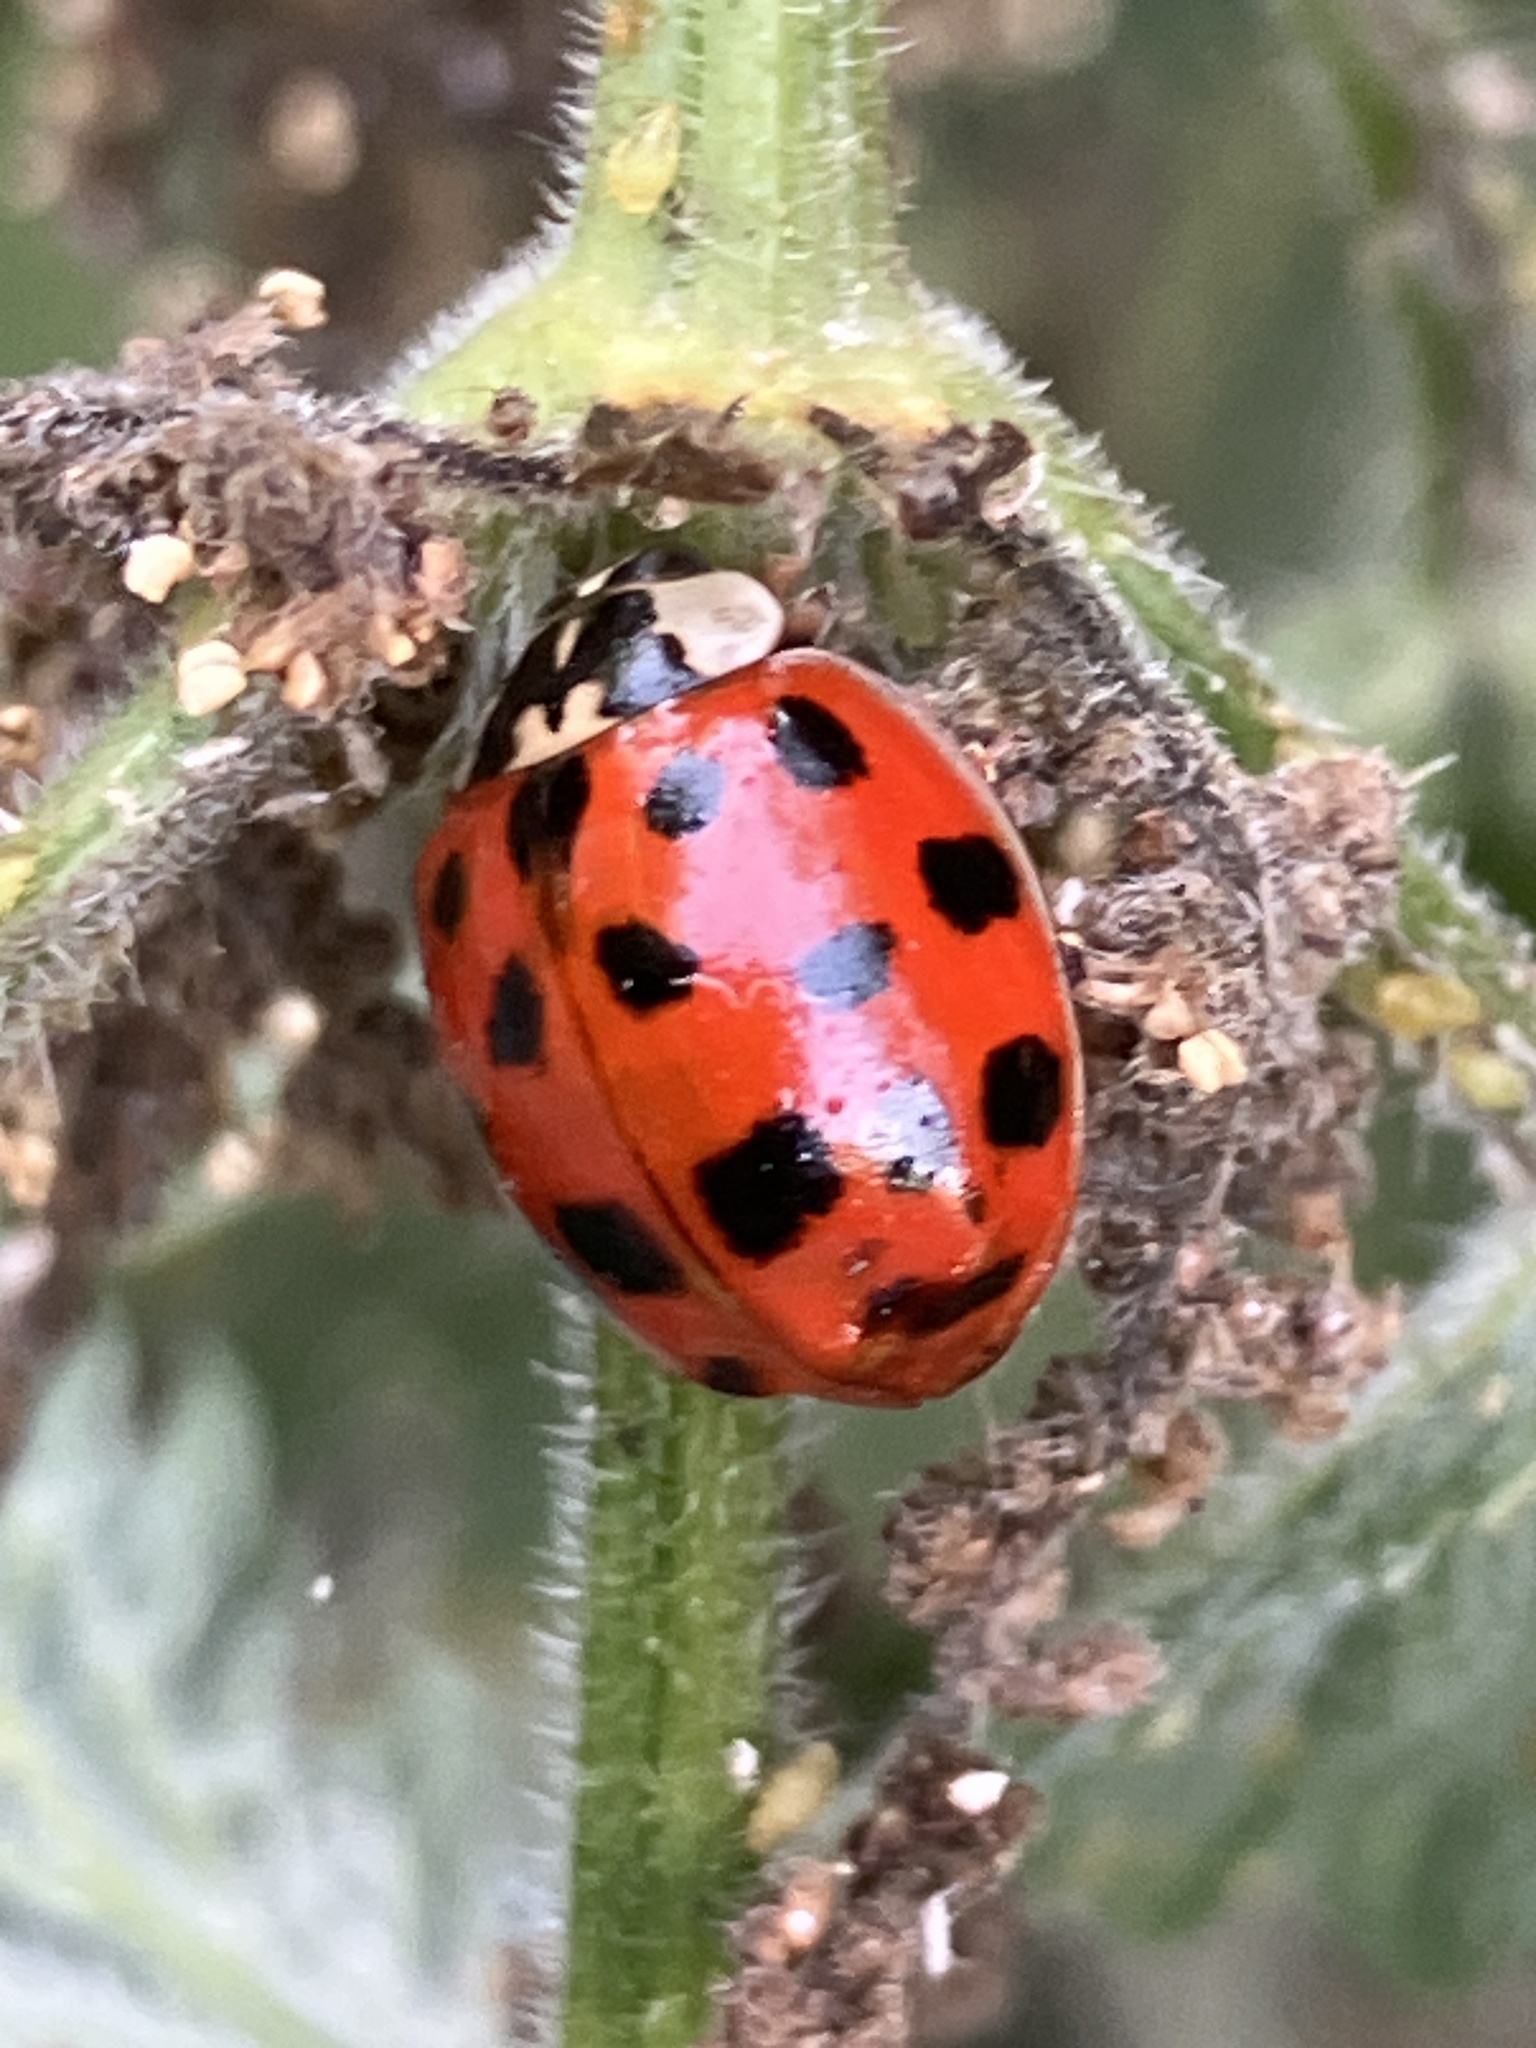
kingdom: Animalia
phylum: Arthropoda
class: Insecta
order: Coleoptera
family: Coccinellidae
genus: Harmonia
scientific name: Harmonia axyridis
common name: Harlequin ladybird
